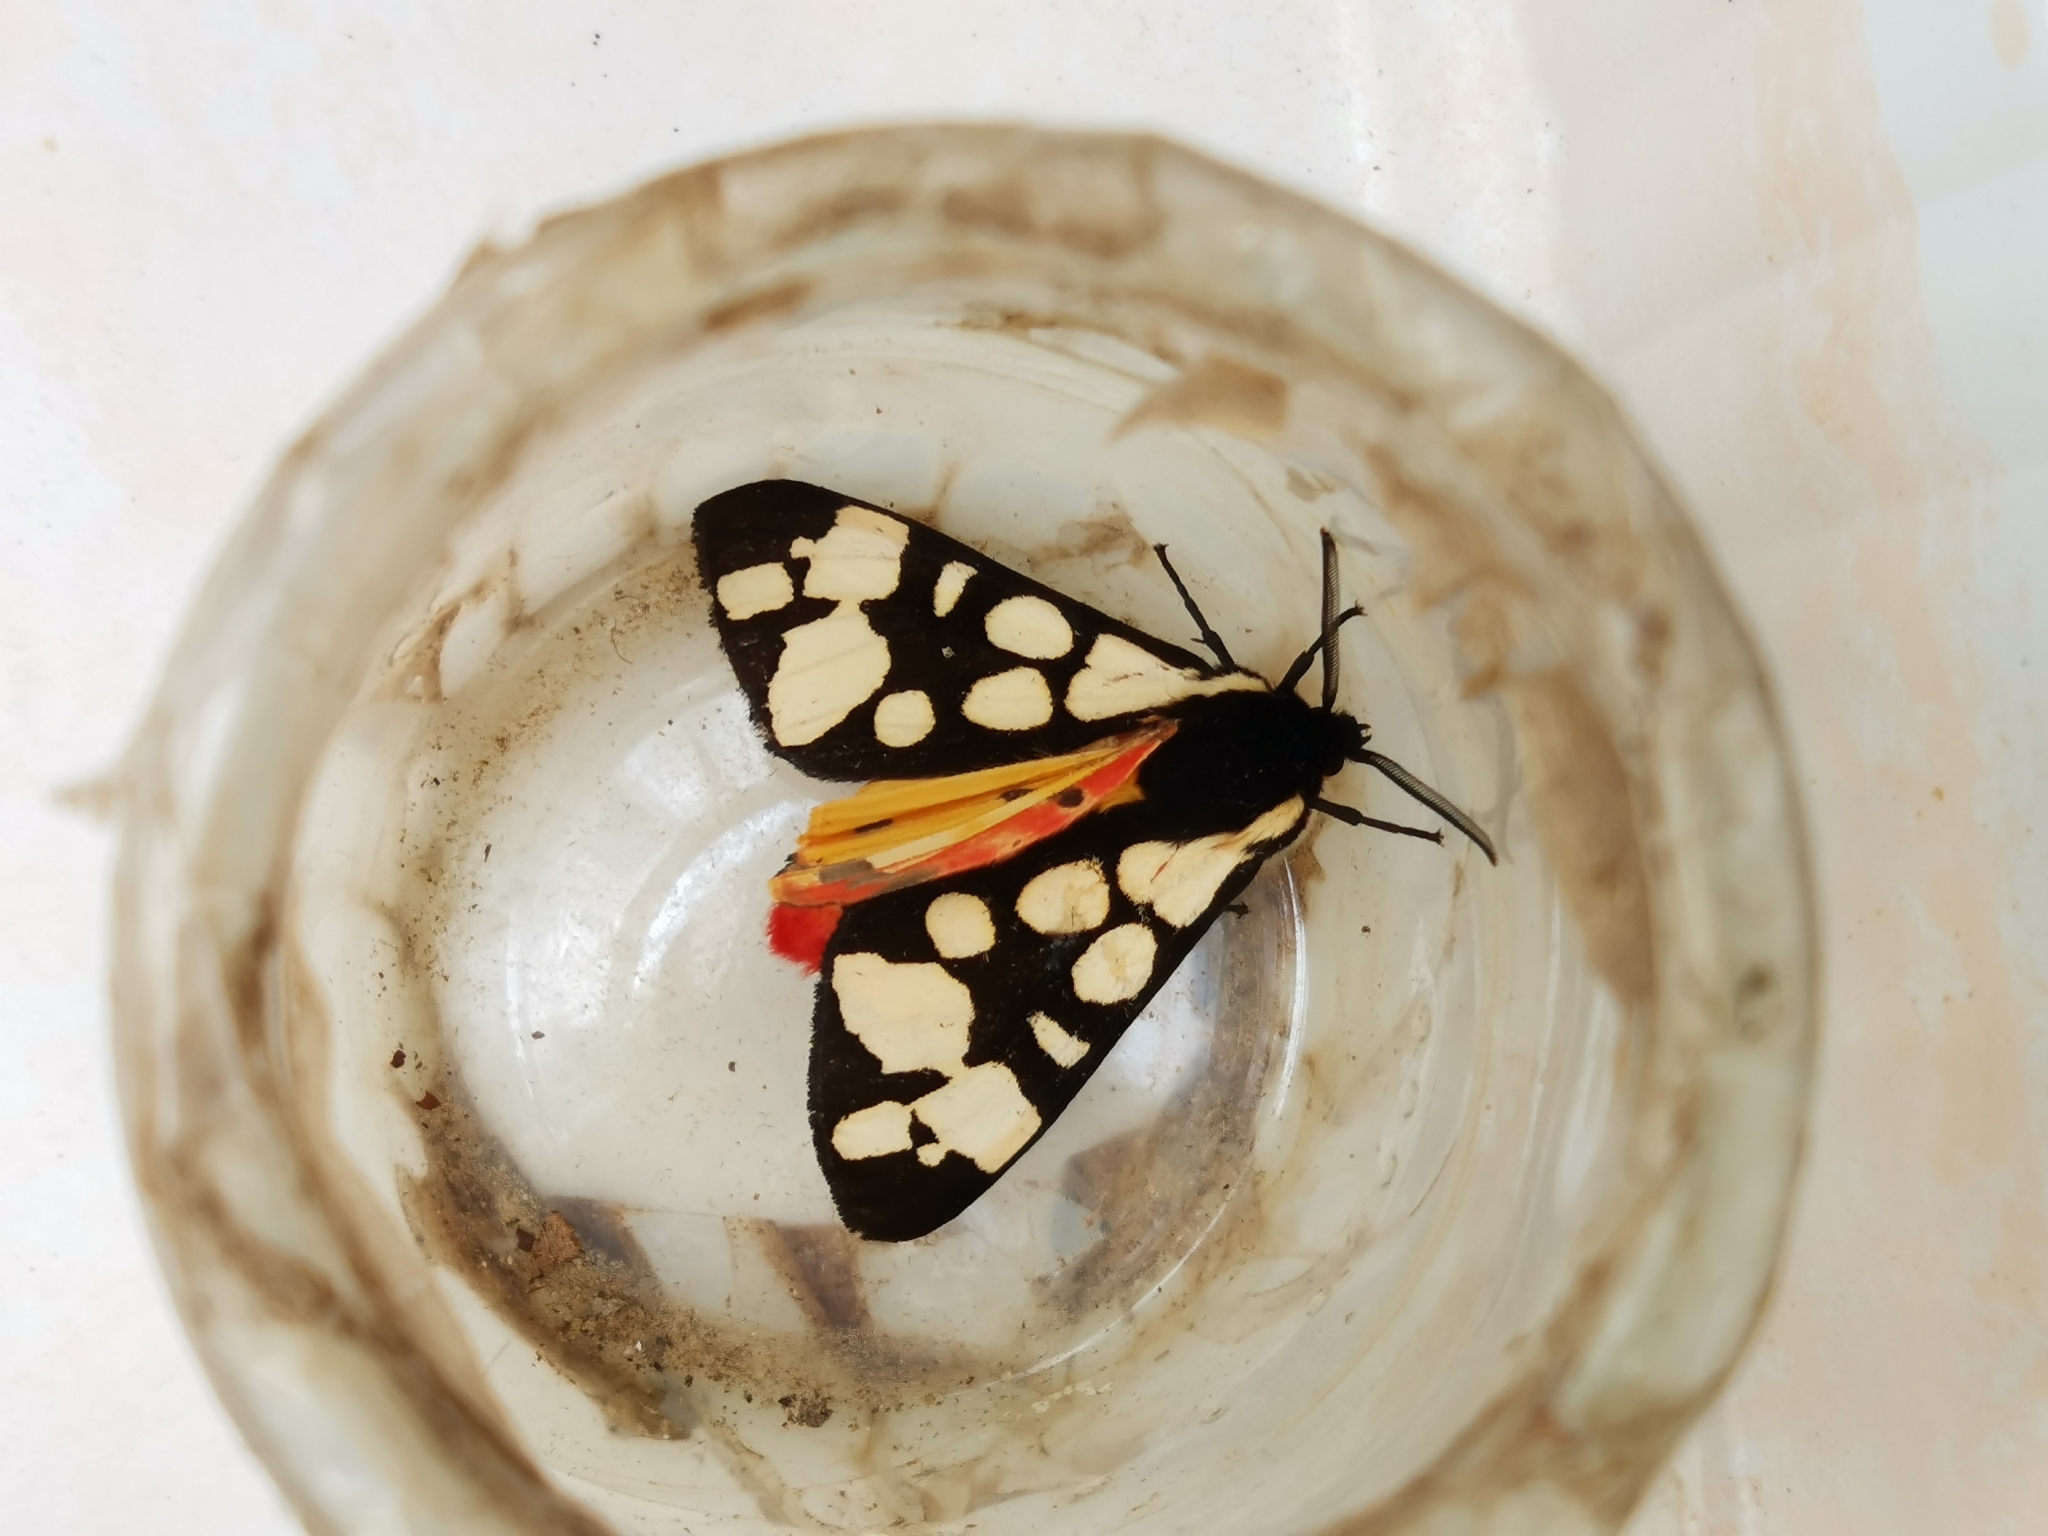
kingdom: Animalia
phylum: Arthropoda
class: Insecta
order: Lepidoptera
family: Erebidae
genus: Epicallia
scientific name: Epicallia villica
